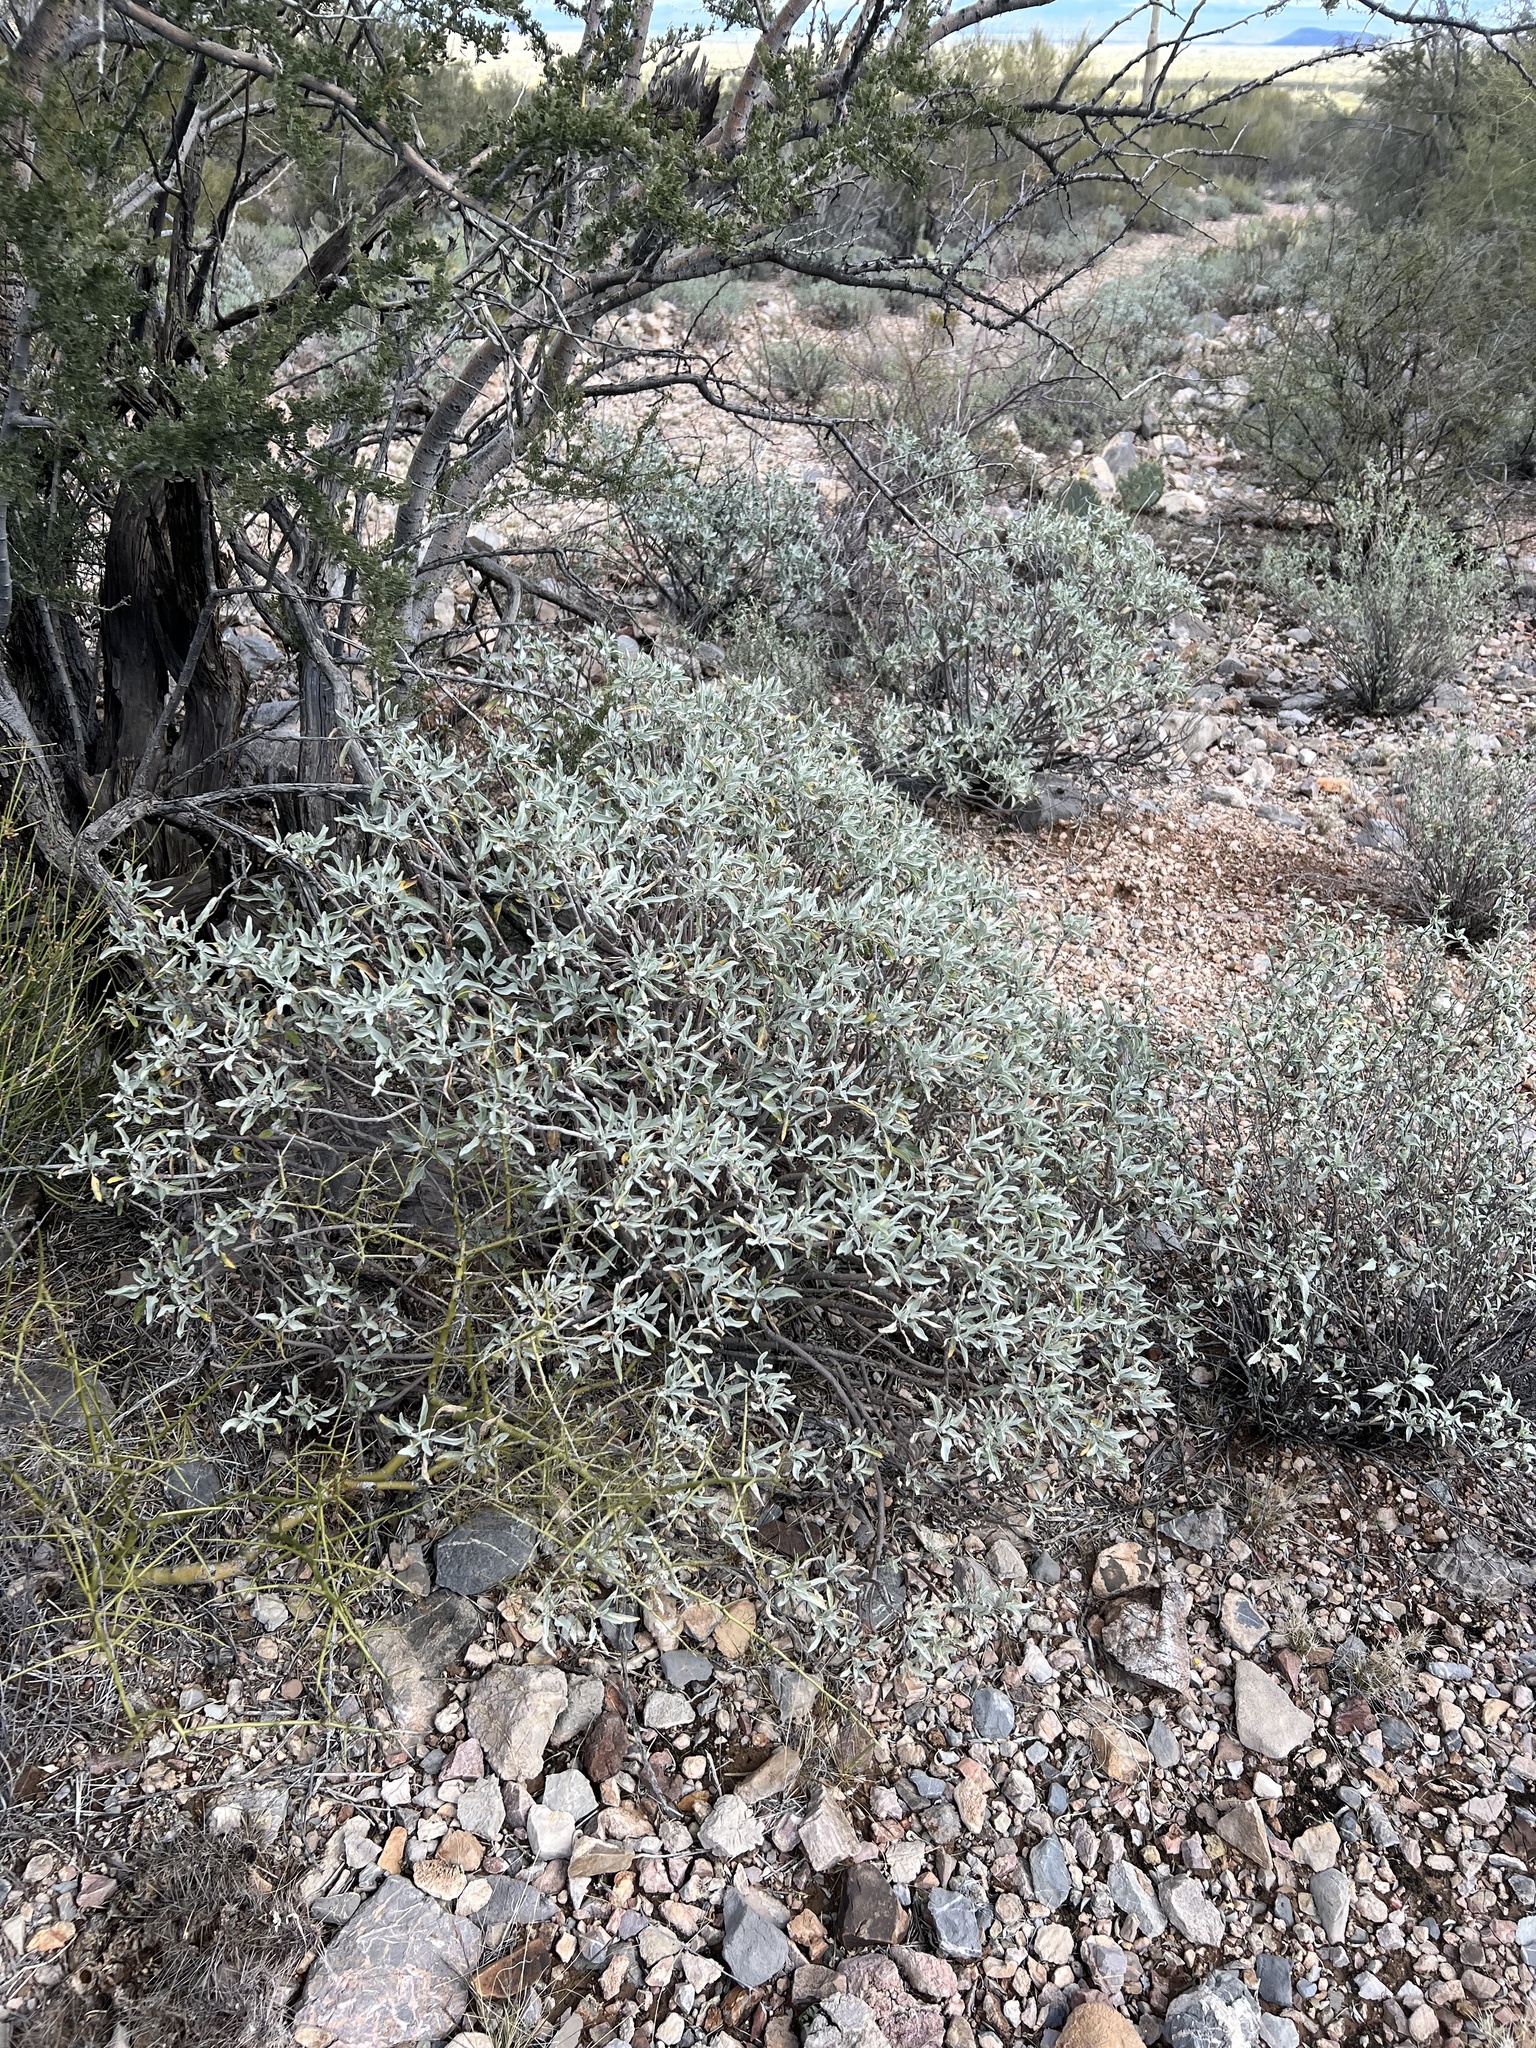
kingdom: Plantae
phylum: Tracheophyta
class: Magnoliopsida
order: Asterales
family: Asteraceae
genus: Encelia
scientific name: Encelia farinosa
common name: Brittlebush
